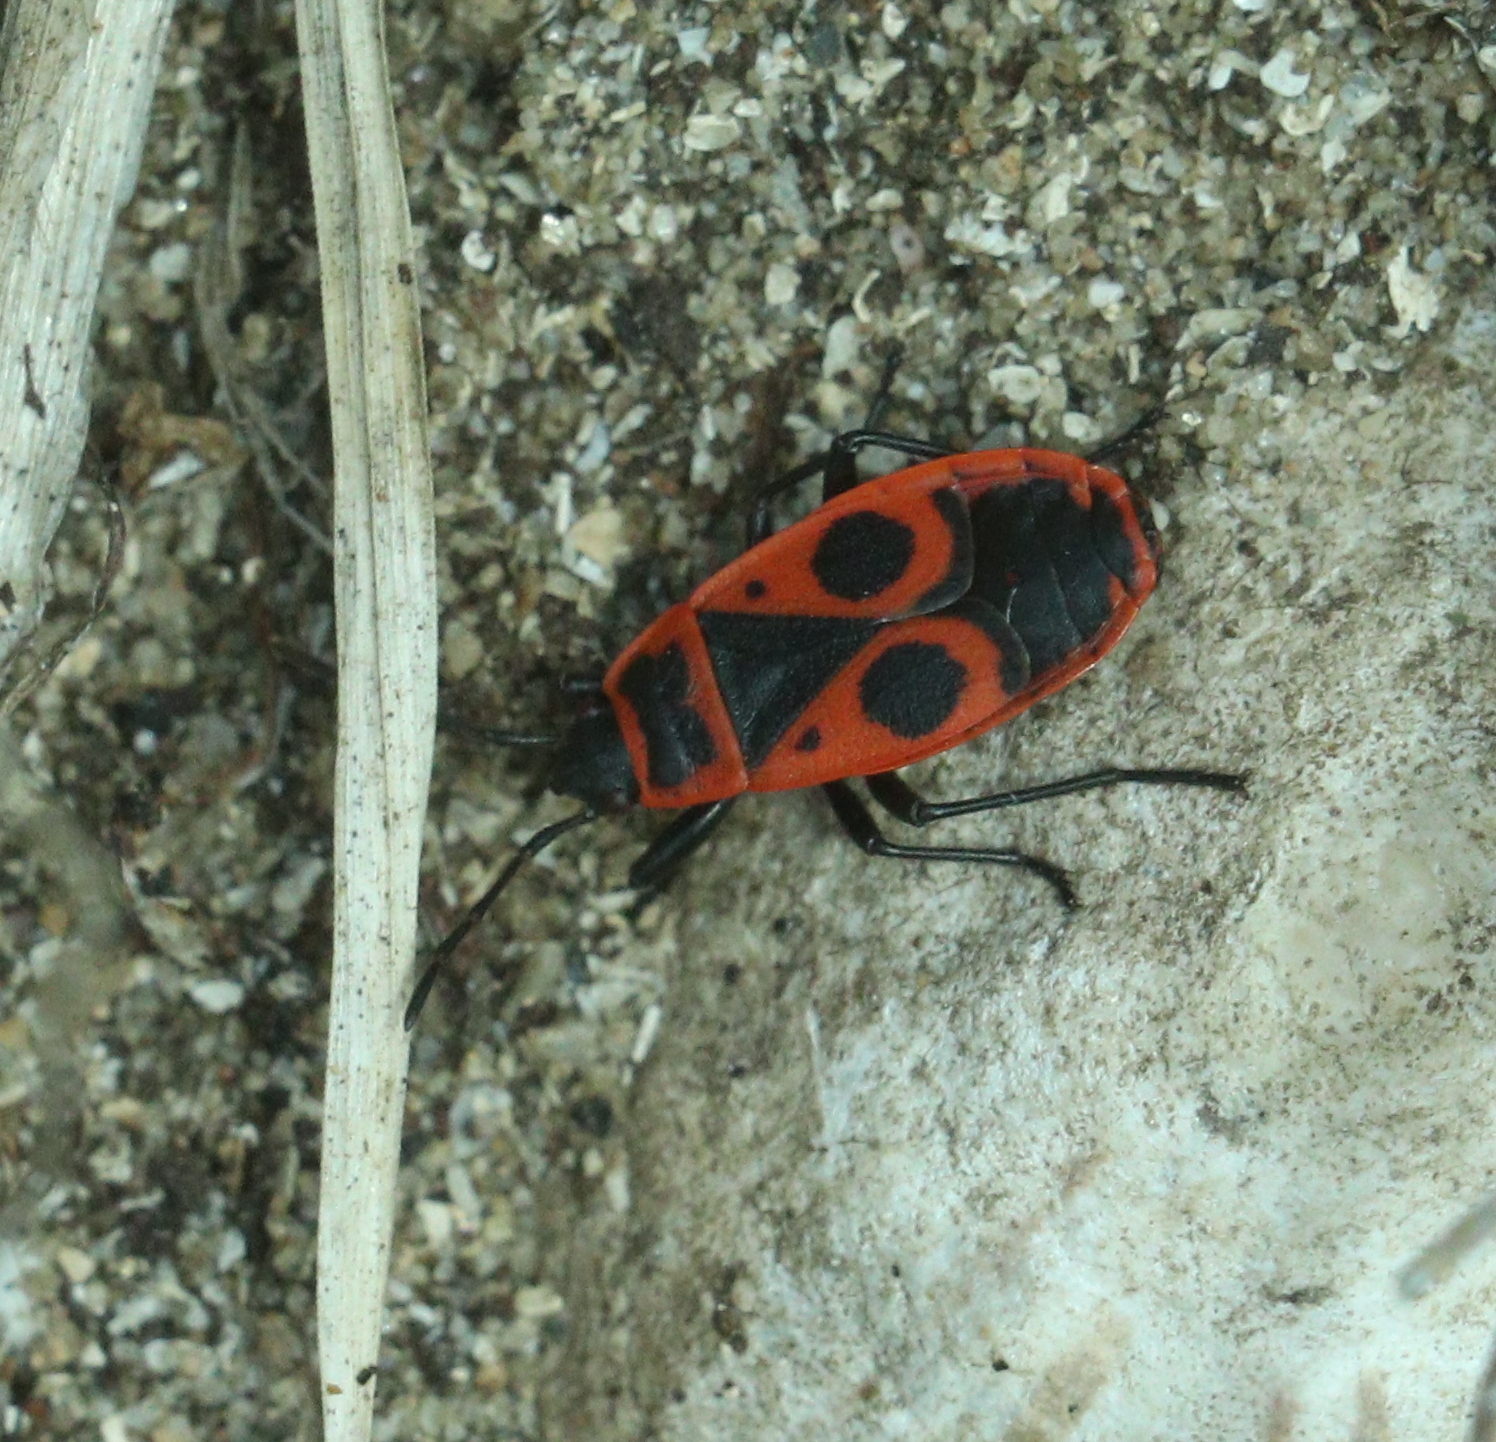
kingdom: Animalia
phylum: Arthropoda
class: Insecta
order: Hemiptera
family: Pyrrhocoridae
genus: Pyrrhocoris
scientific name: Pyrrhocoris apterus
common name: Firebug
